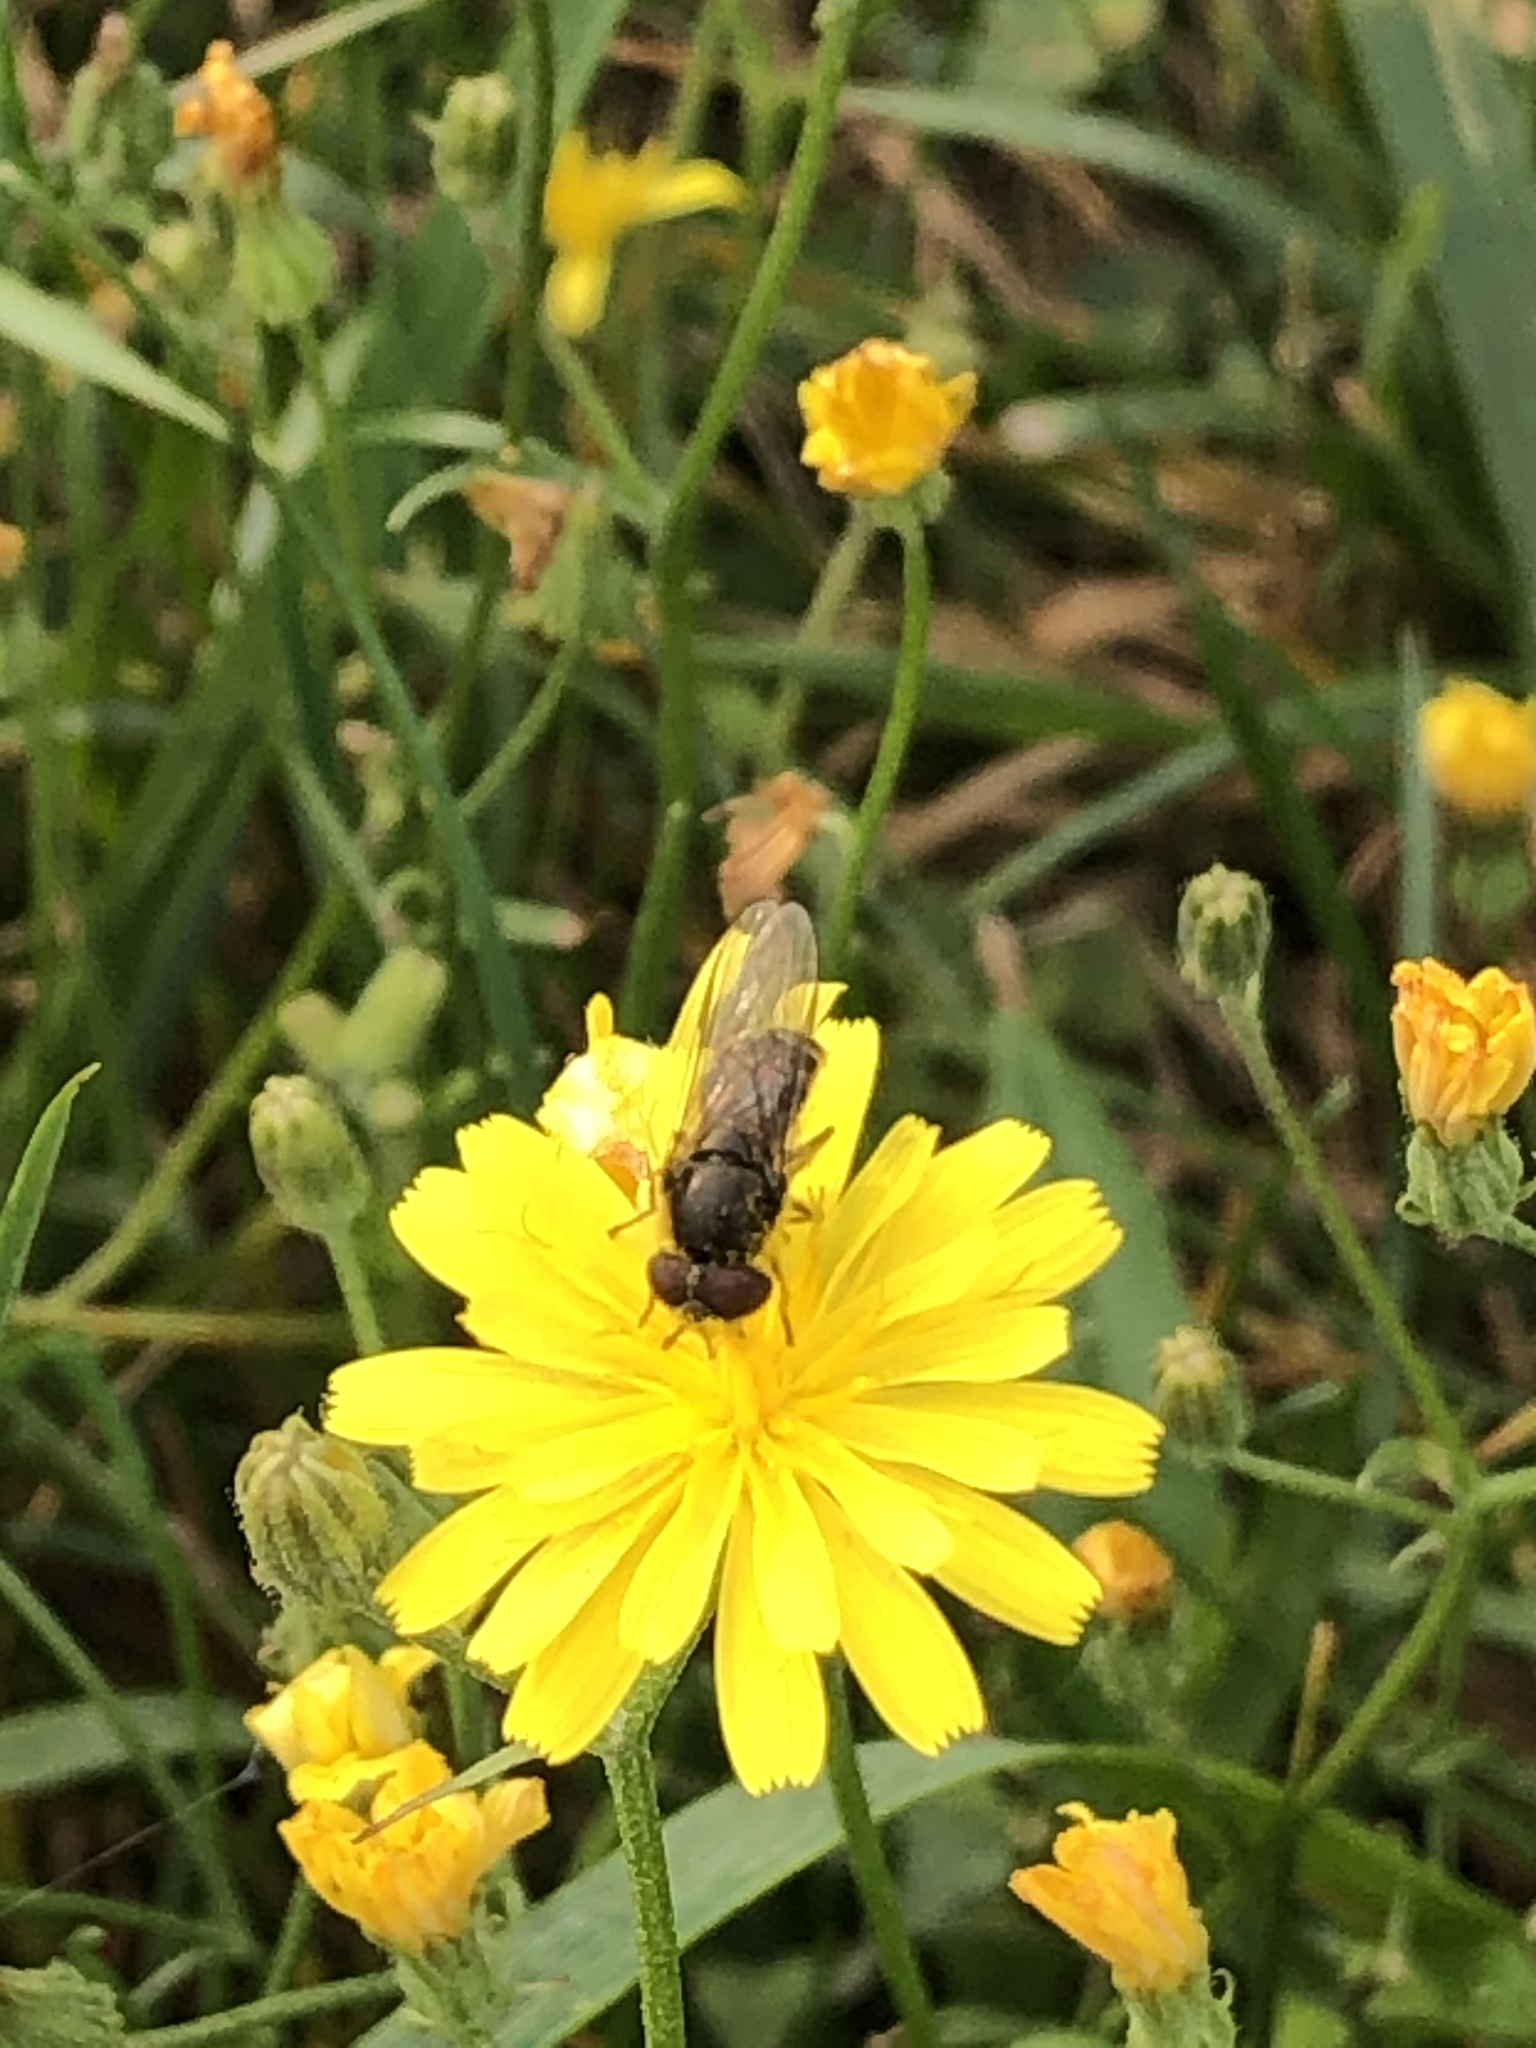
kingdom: Animalia
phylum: Arthropoda
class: Insecta
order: Diptera
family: Syrphidae
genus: Platycheirus
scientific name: Platycheirus
